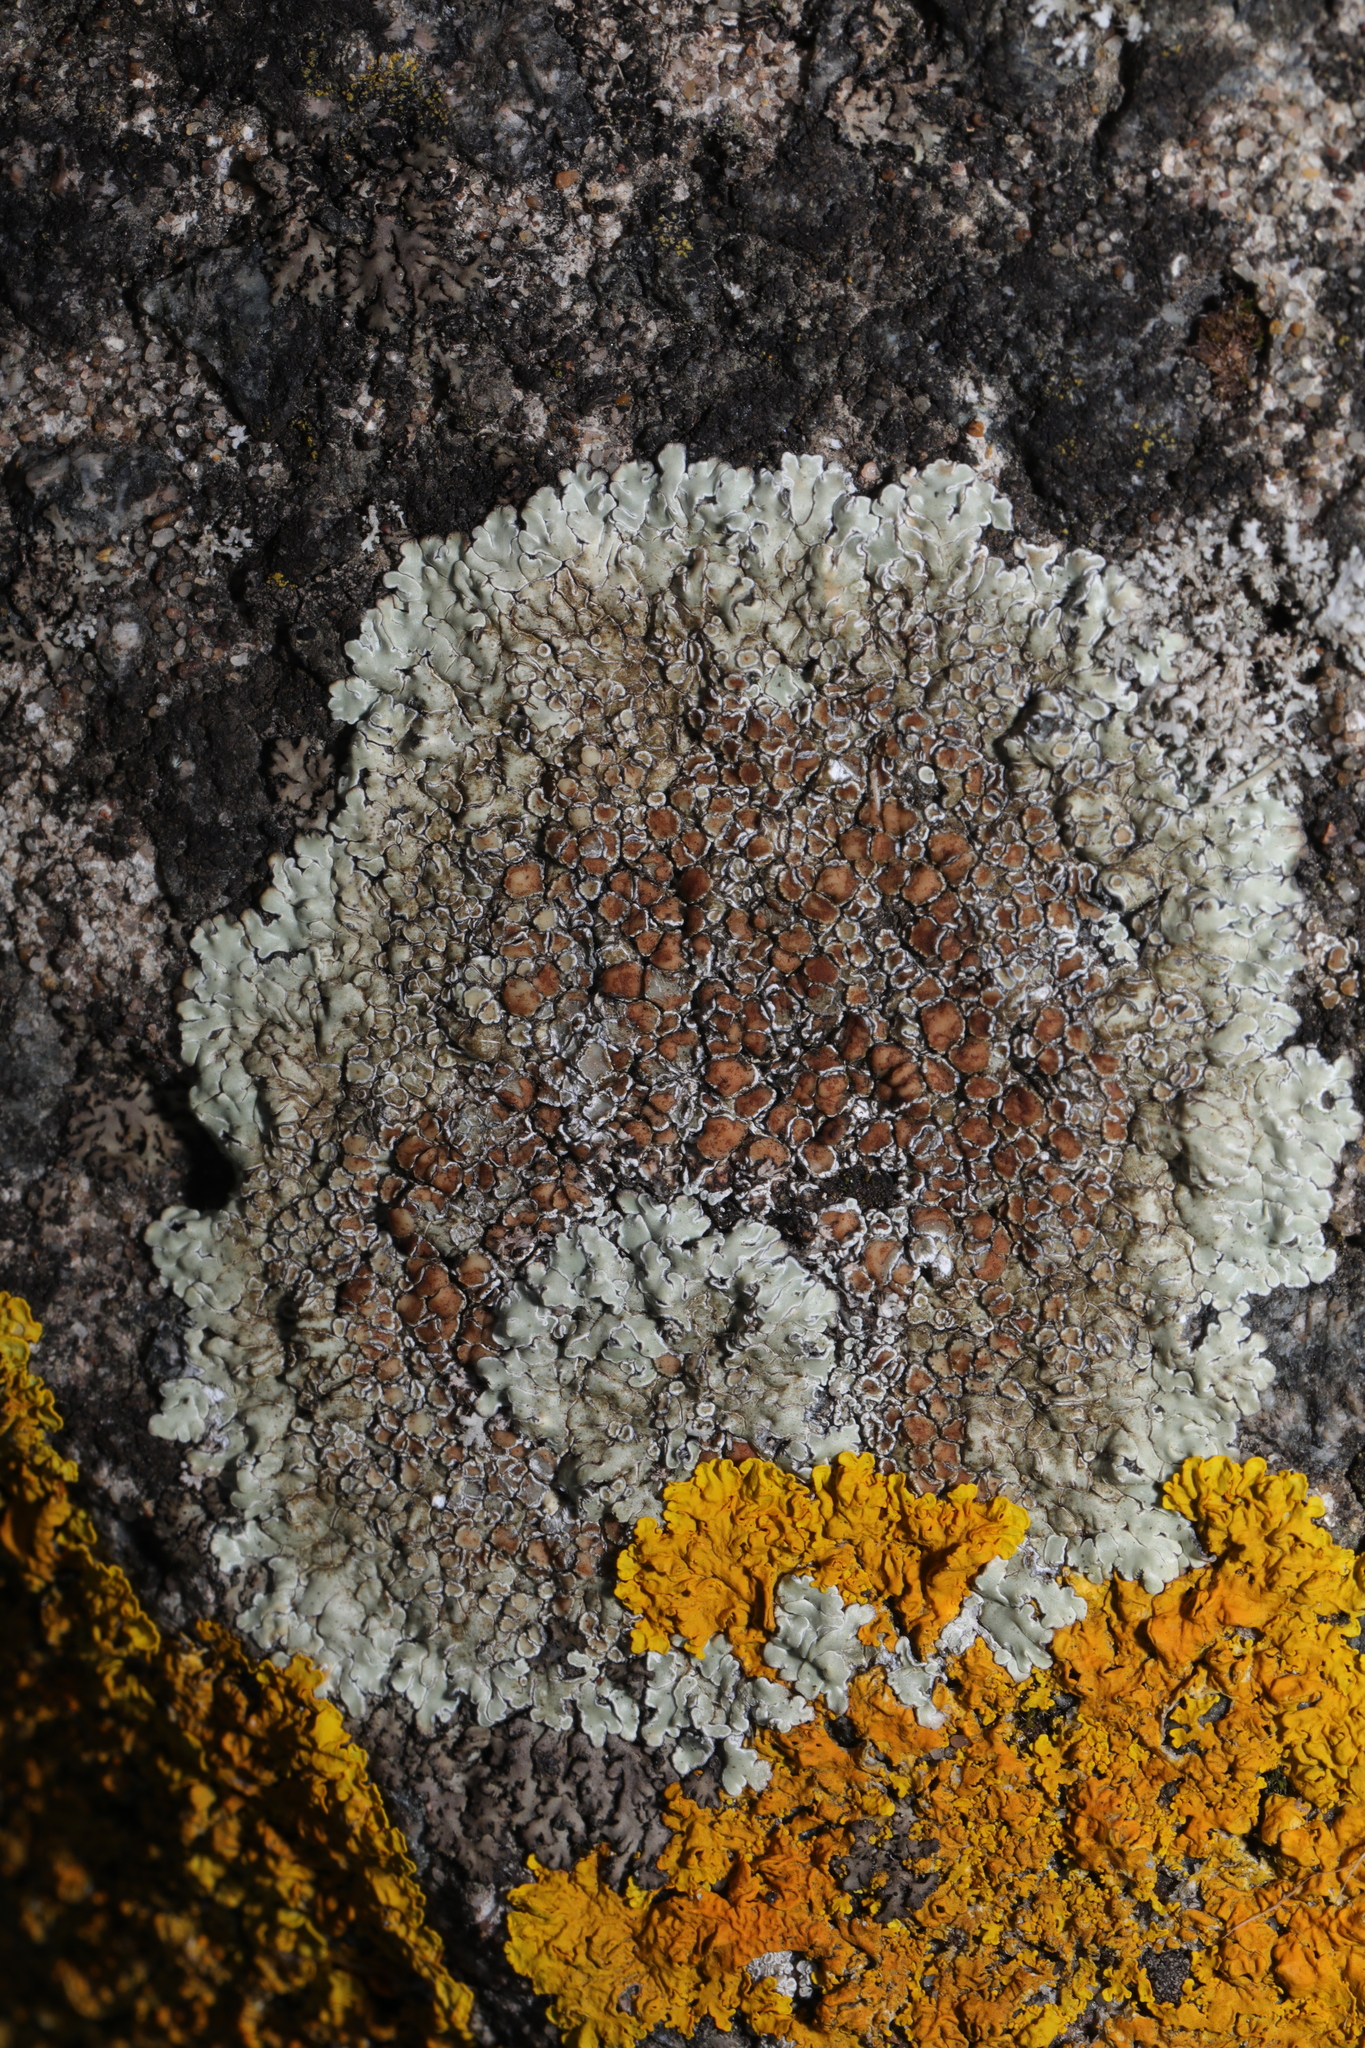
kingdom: Fungi
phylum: Ascomycota
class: Lecanoromycetes
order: Lecanorales
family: Lecanoraceae
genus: Protoparmeliopsis
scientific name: Protoparmeliopsis muralis
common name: Stonewall rim lichen
